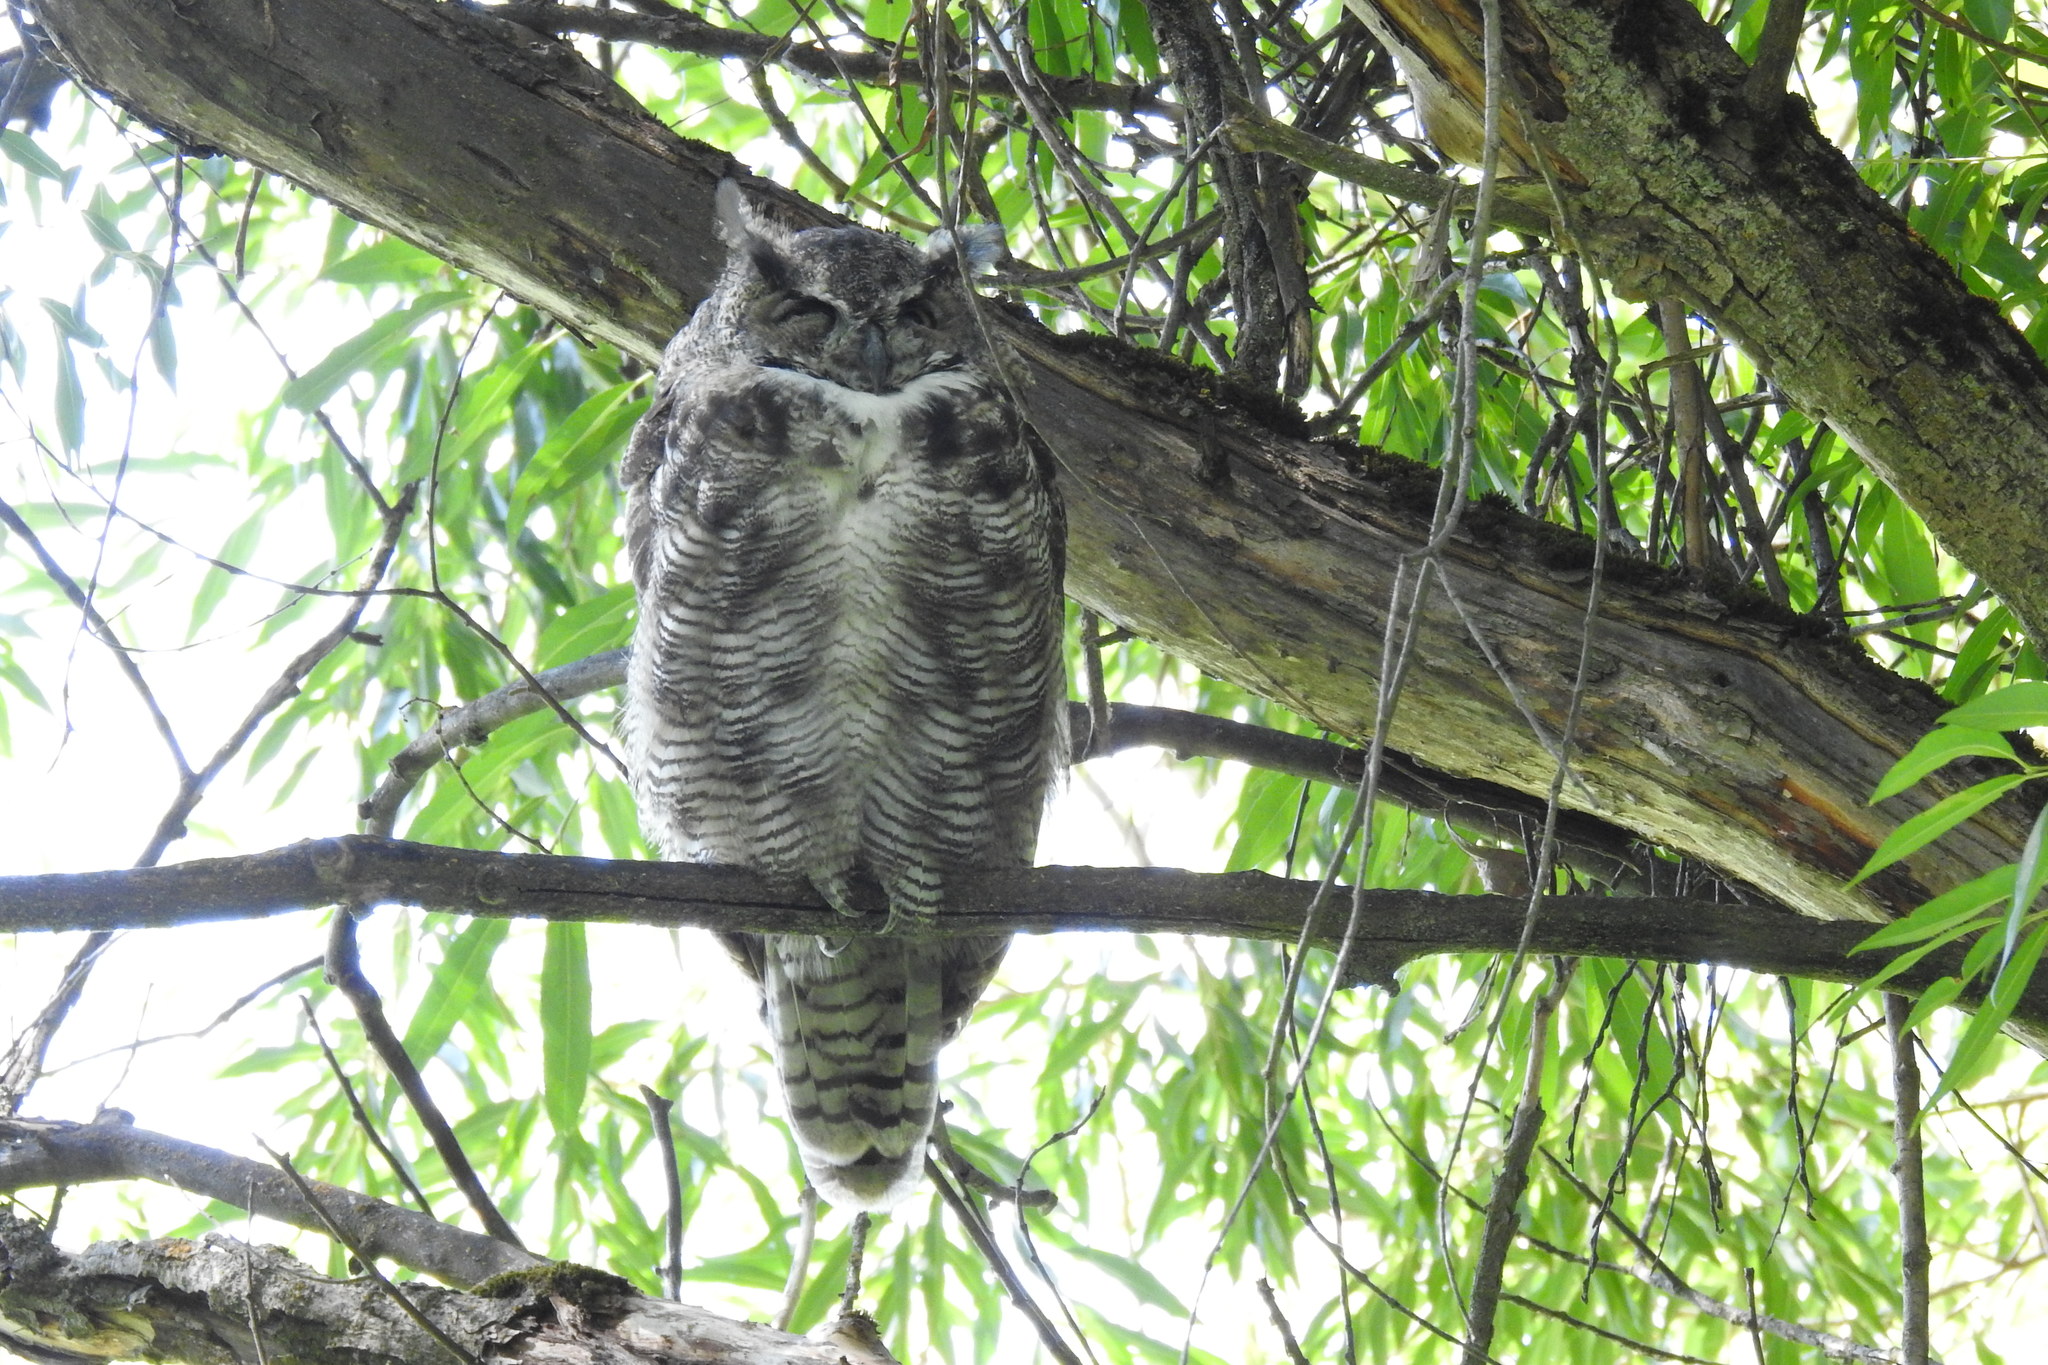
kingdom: Animalia
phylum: Chordata
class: Aves
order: Strigiformes
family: Strigidae
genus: Bubo
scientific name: Bubo virginianus
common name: Great horned owl
